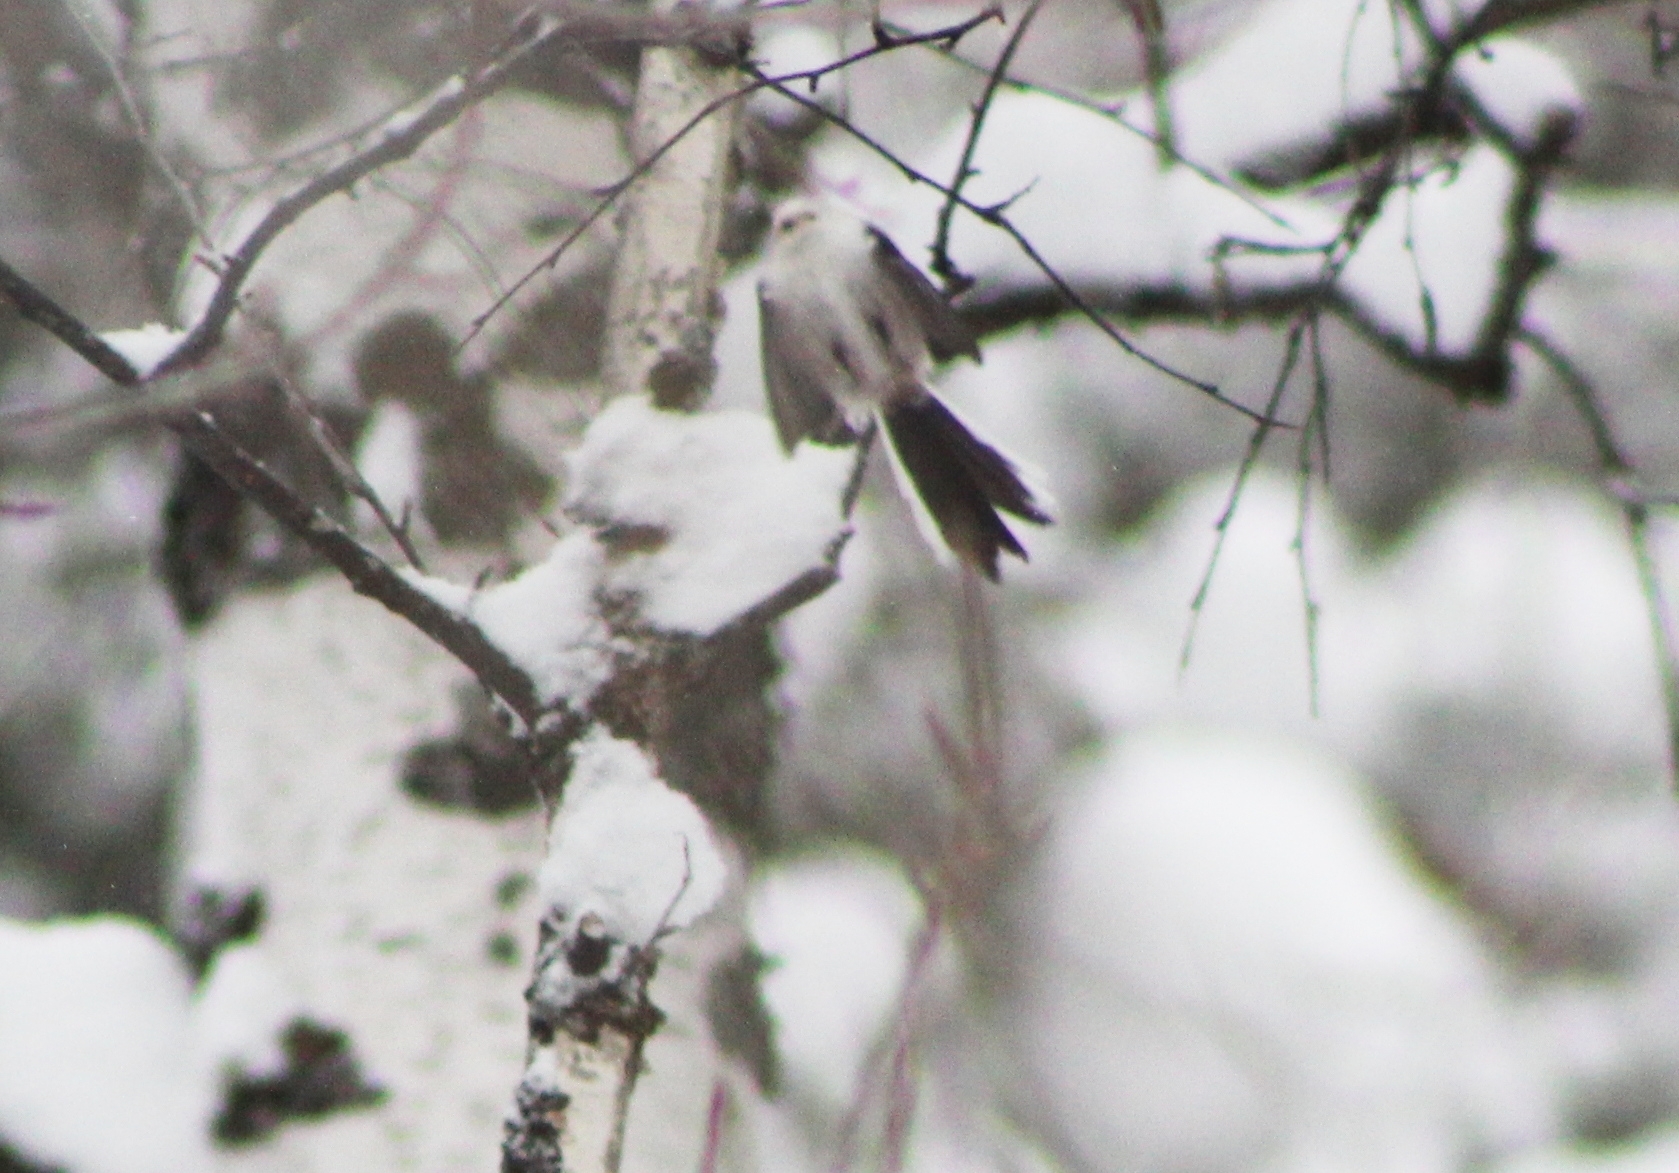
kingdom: Animalia
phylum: Chordata
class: Aves
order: Passeriformes
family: Aegithalidae
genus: Aegithalos
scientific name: Aegithalos caudatus
